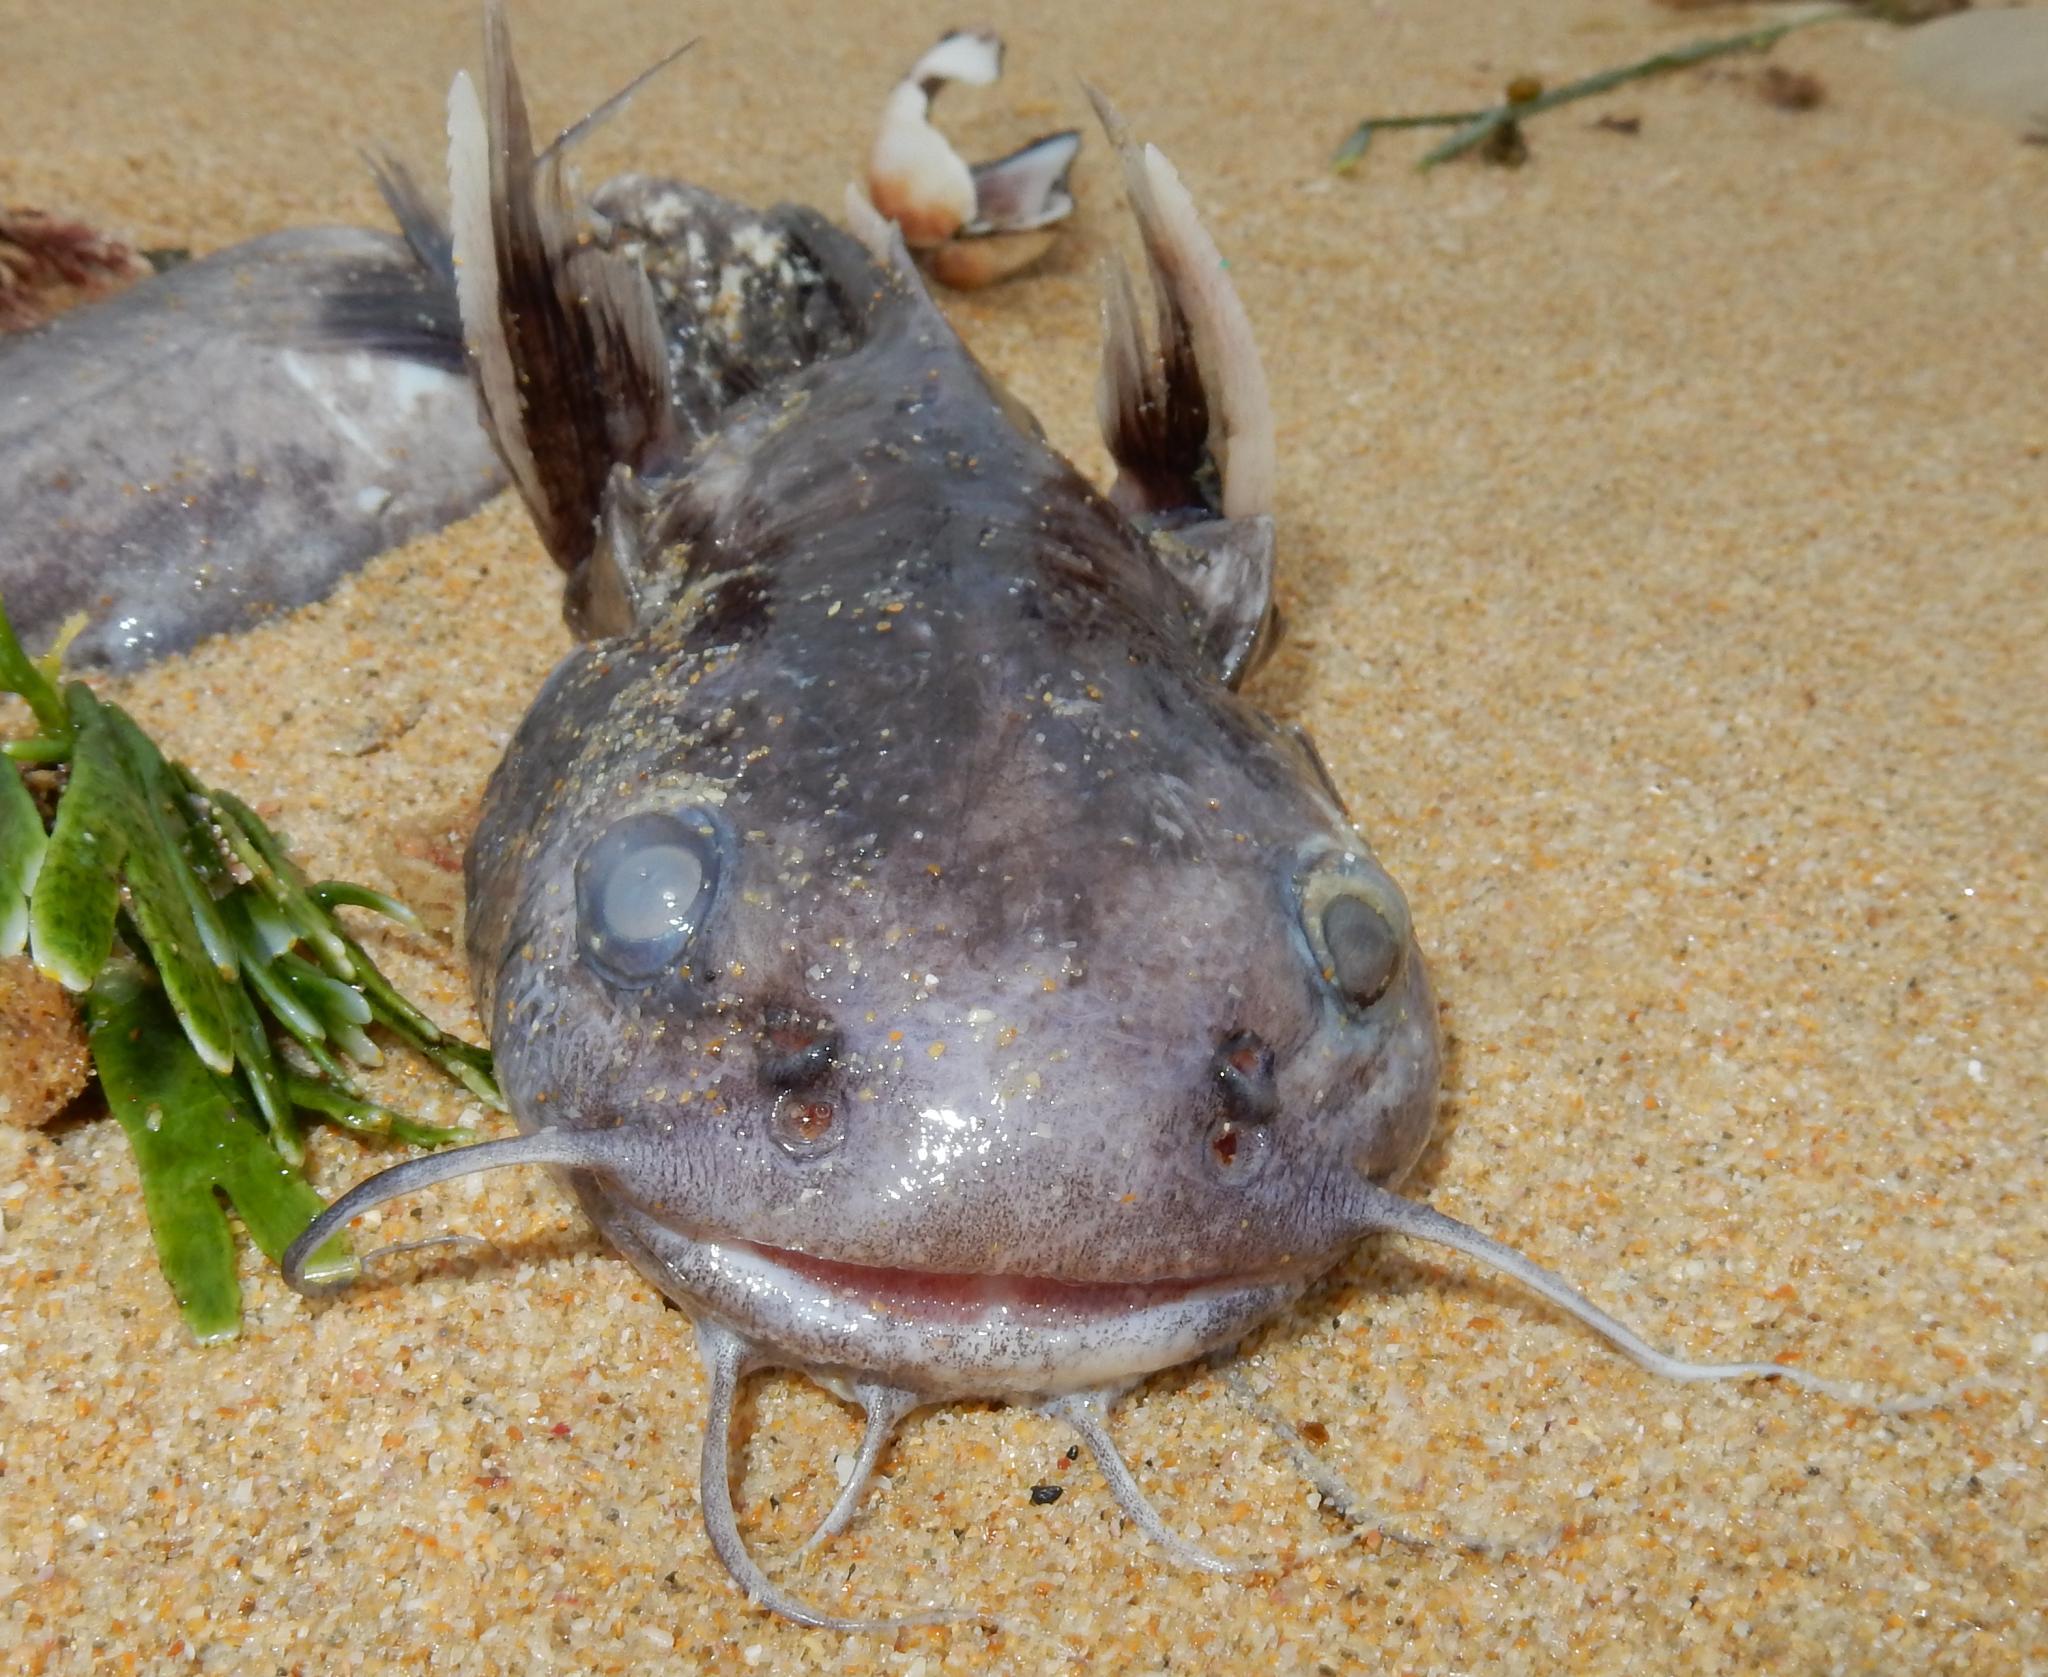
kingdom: Animalia
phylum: Chordata
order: Siluriformes
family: Ariidae
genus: Galeichthys
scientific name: Galeichthys feliceps
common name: White seacatfish
